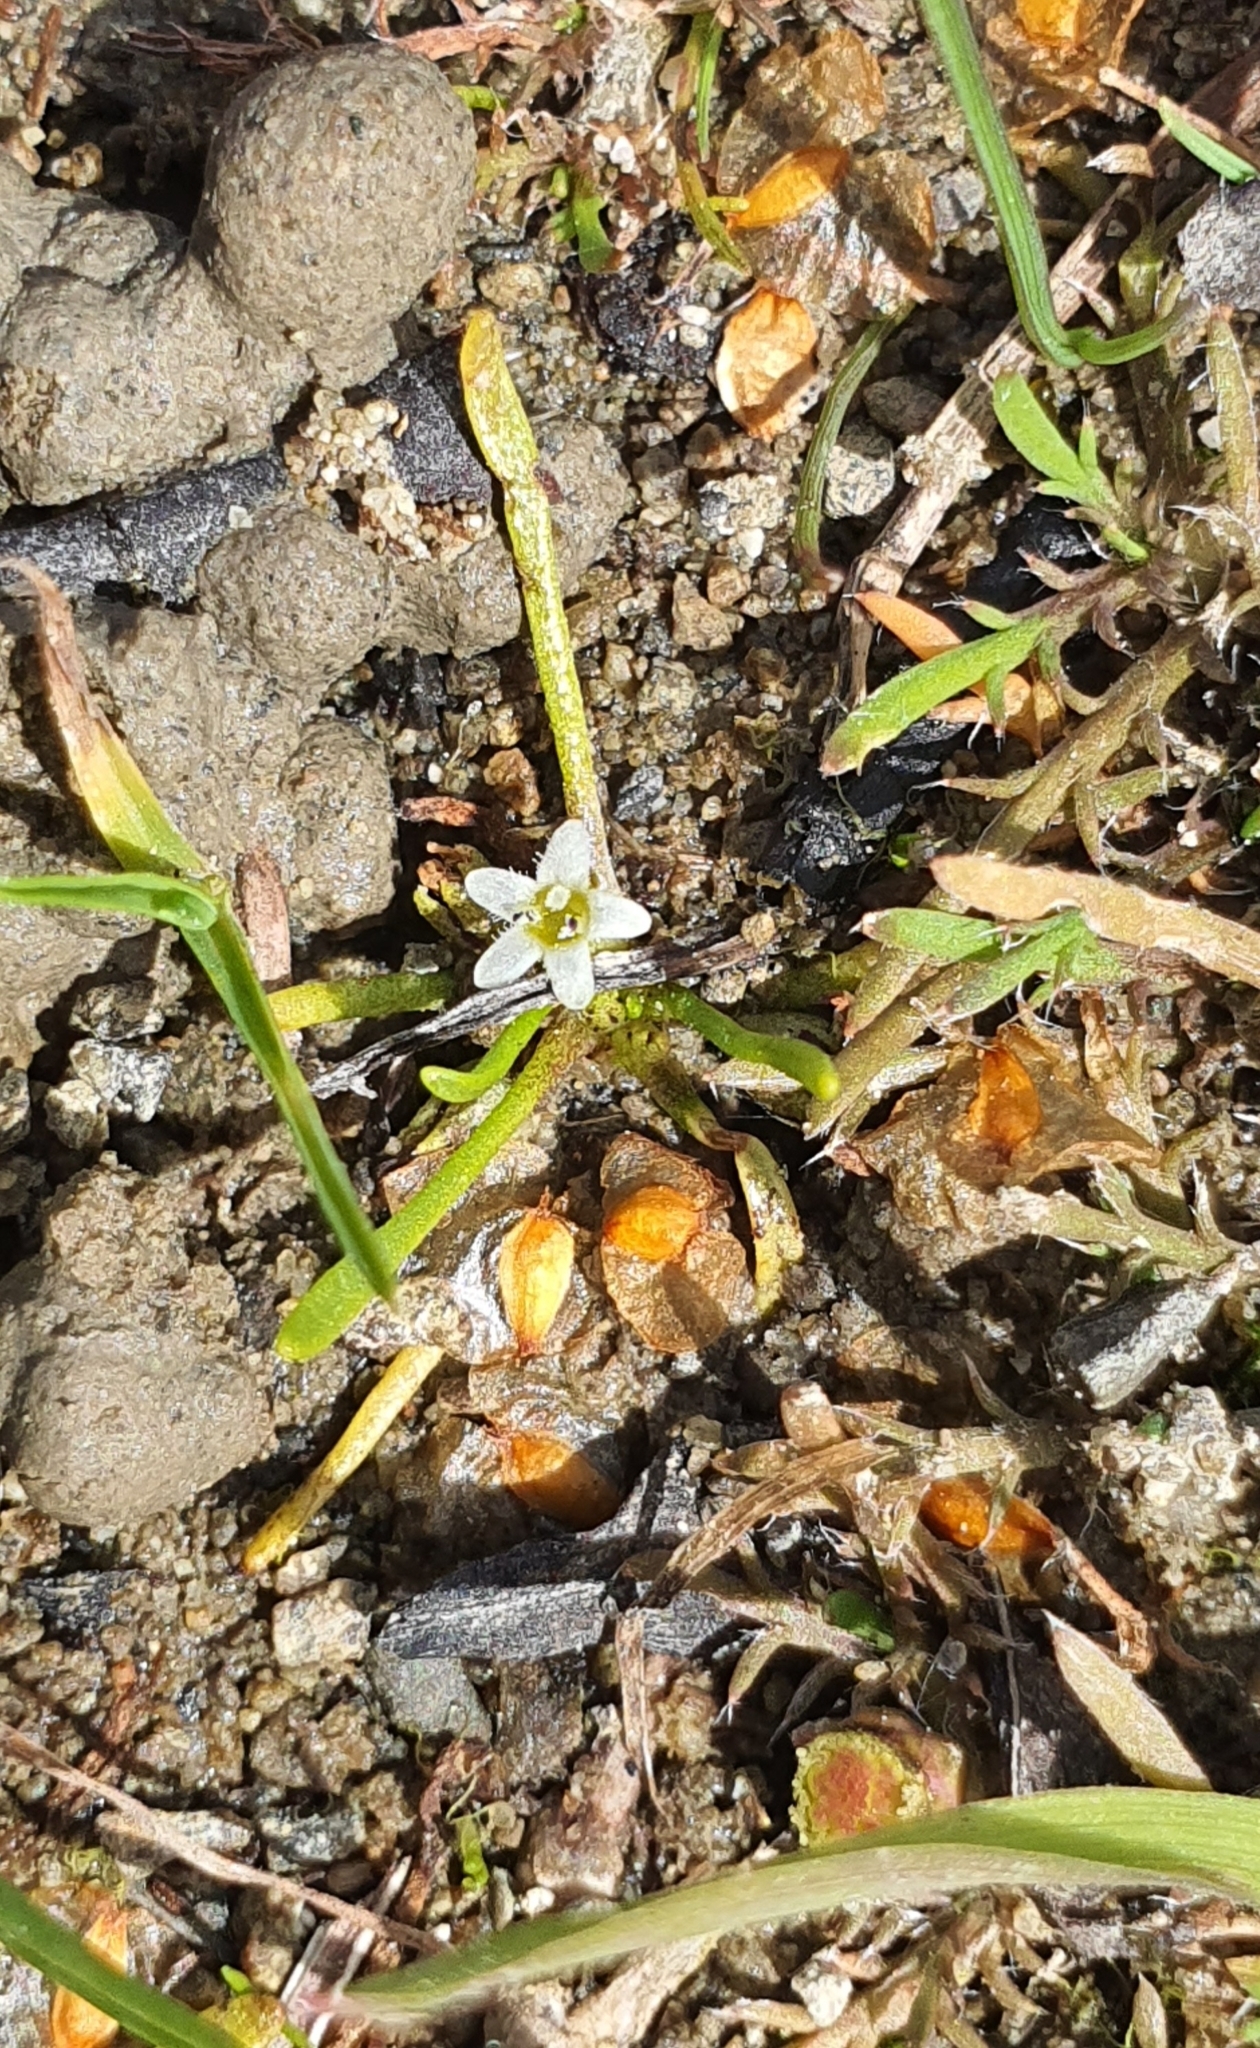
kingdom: Plantae
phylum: Tracheophyta
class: Magnoliopsida
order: Lamiales
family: Scrophulariaceae
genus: Limosella
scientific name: Limosella australis
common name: Welsh mudwort
